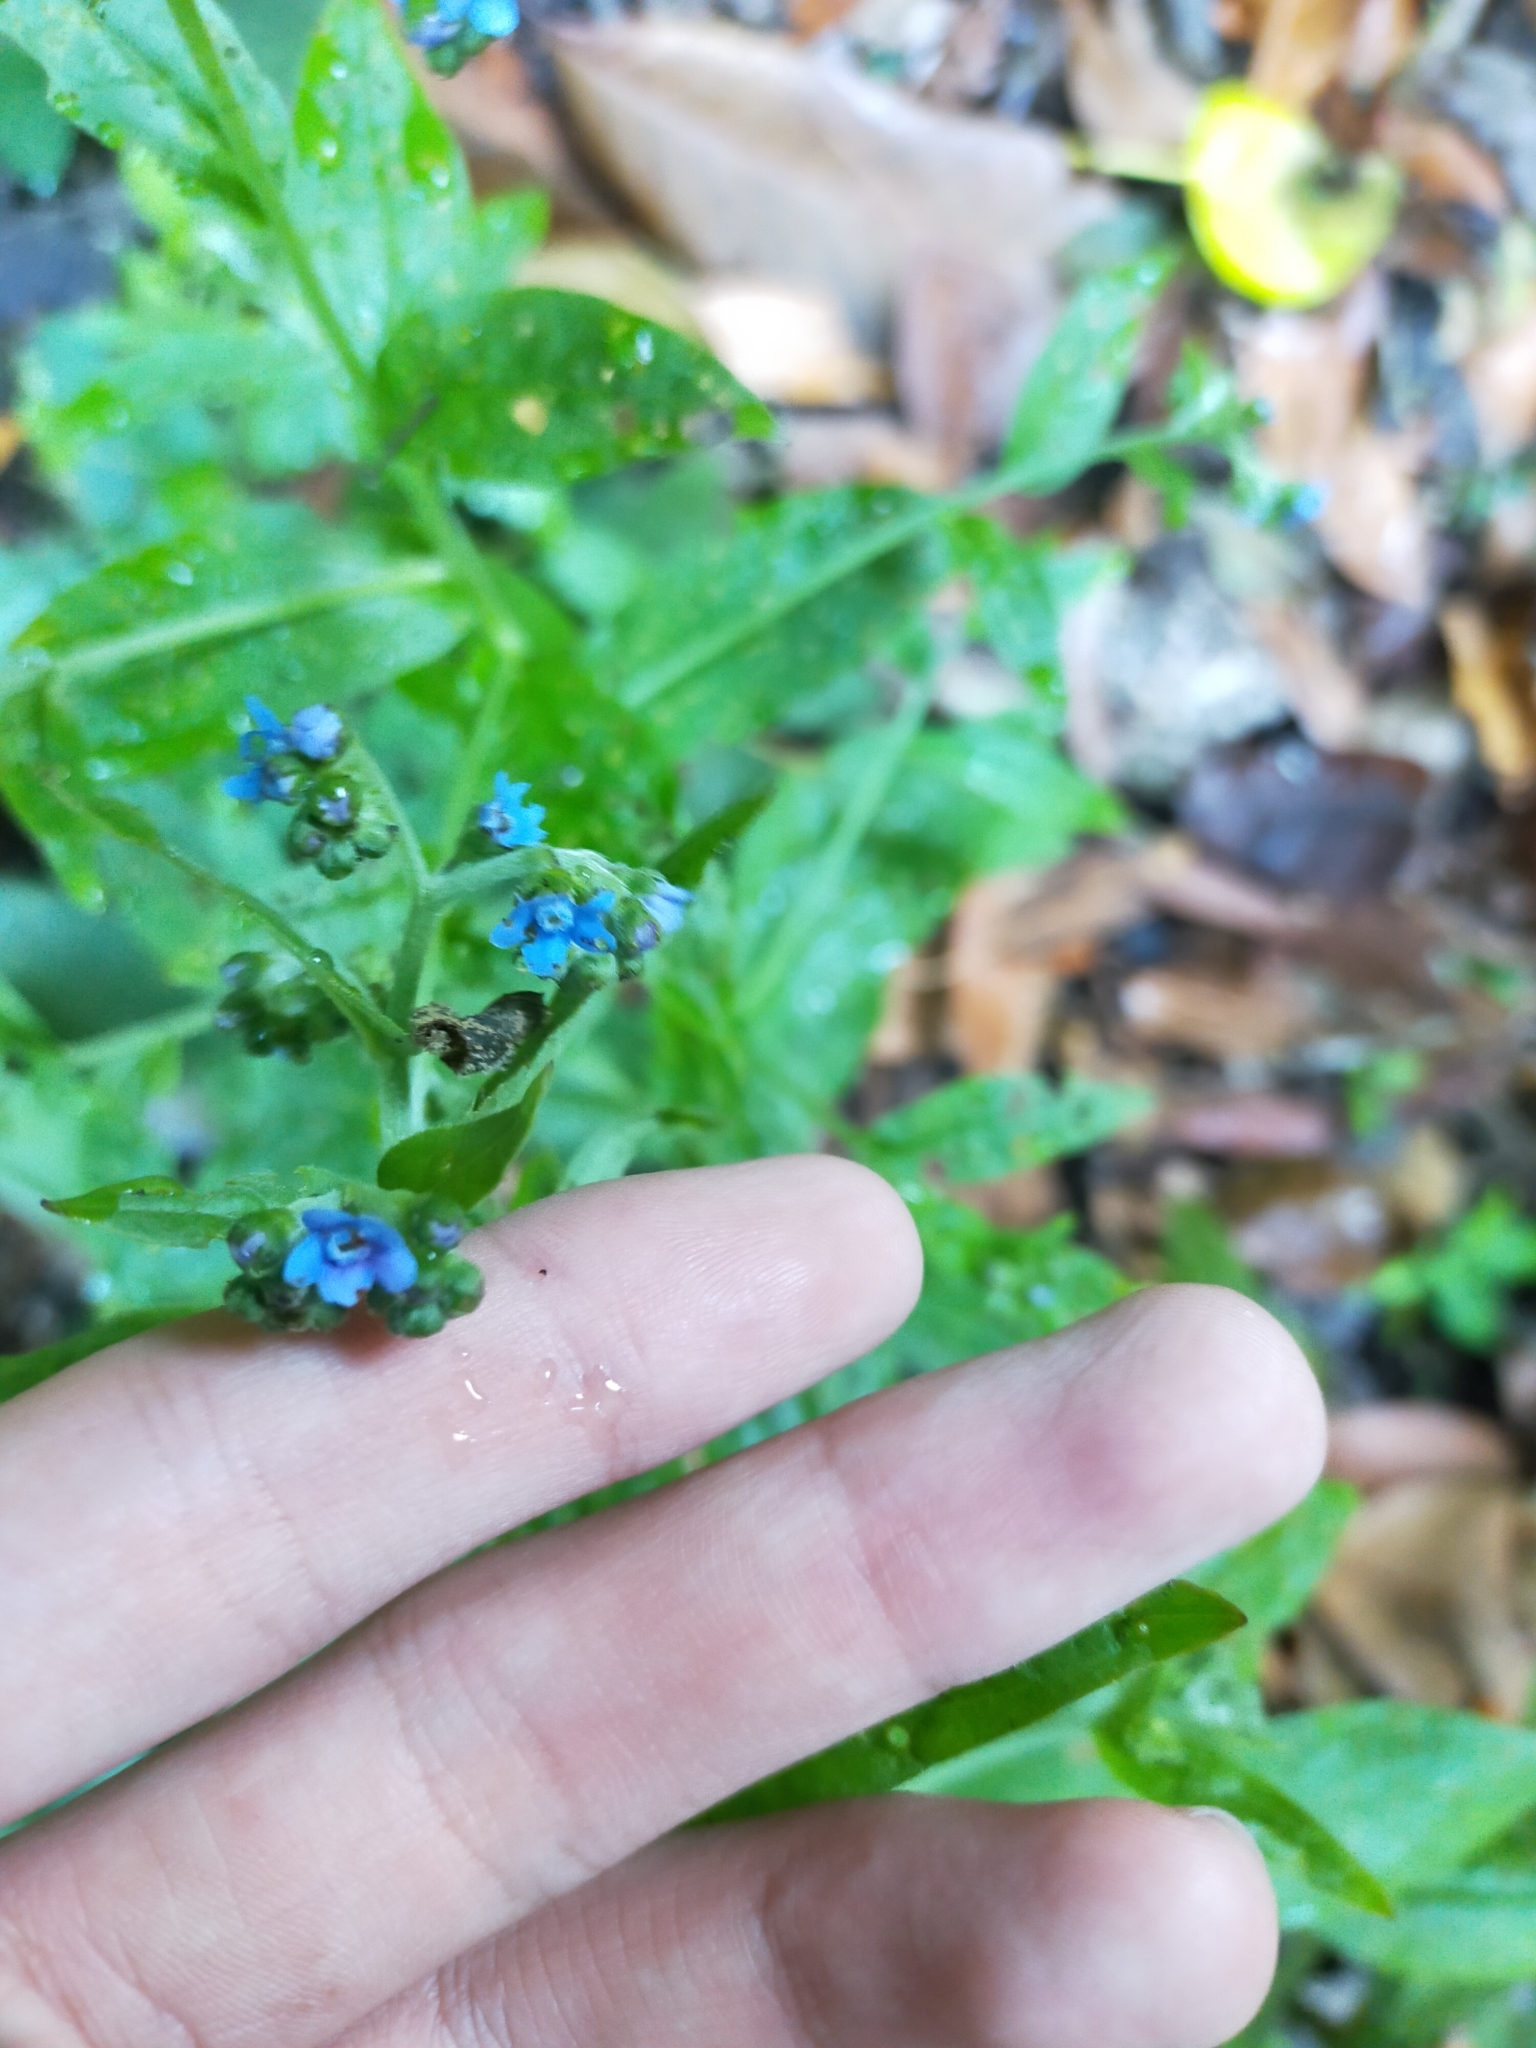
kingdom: Plantae
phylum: Tracheophyta
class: Magnoliopsida
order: Boraginales
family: Boraginaceae
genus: Cynoglossum
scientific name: Cynoglossum zeylanicum
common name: Ceylon hound's tongue
